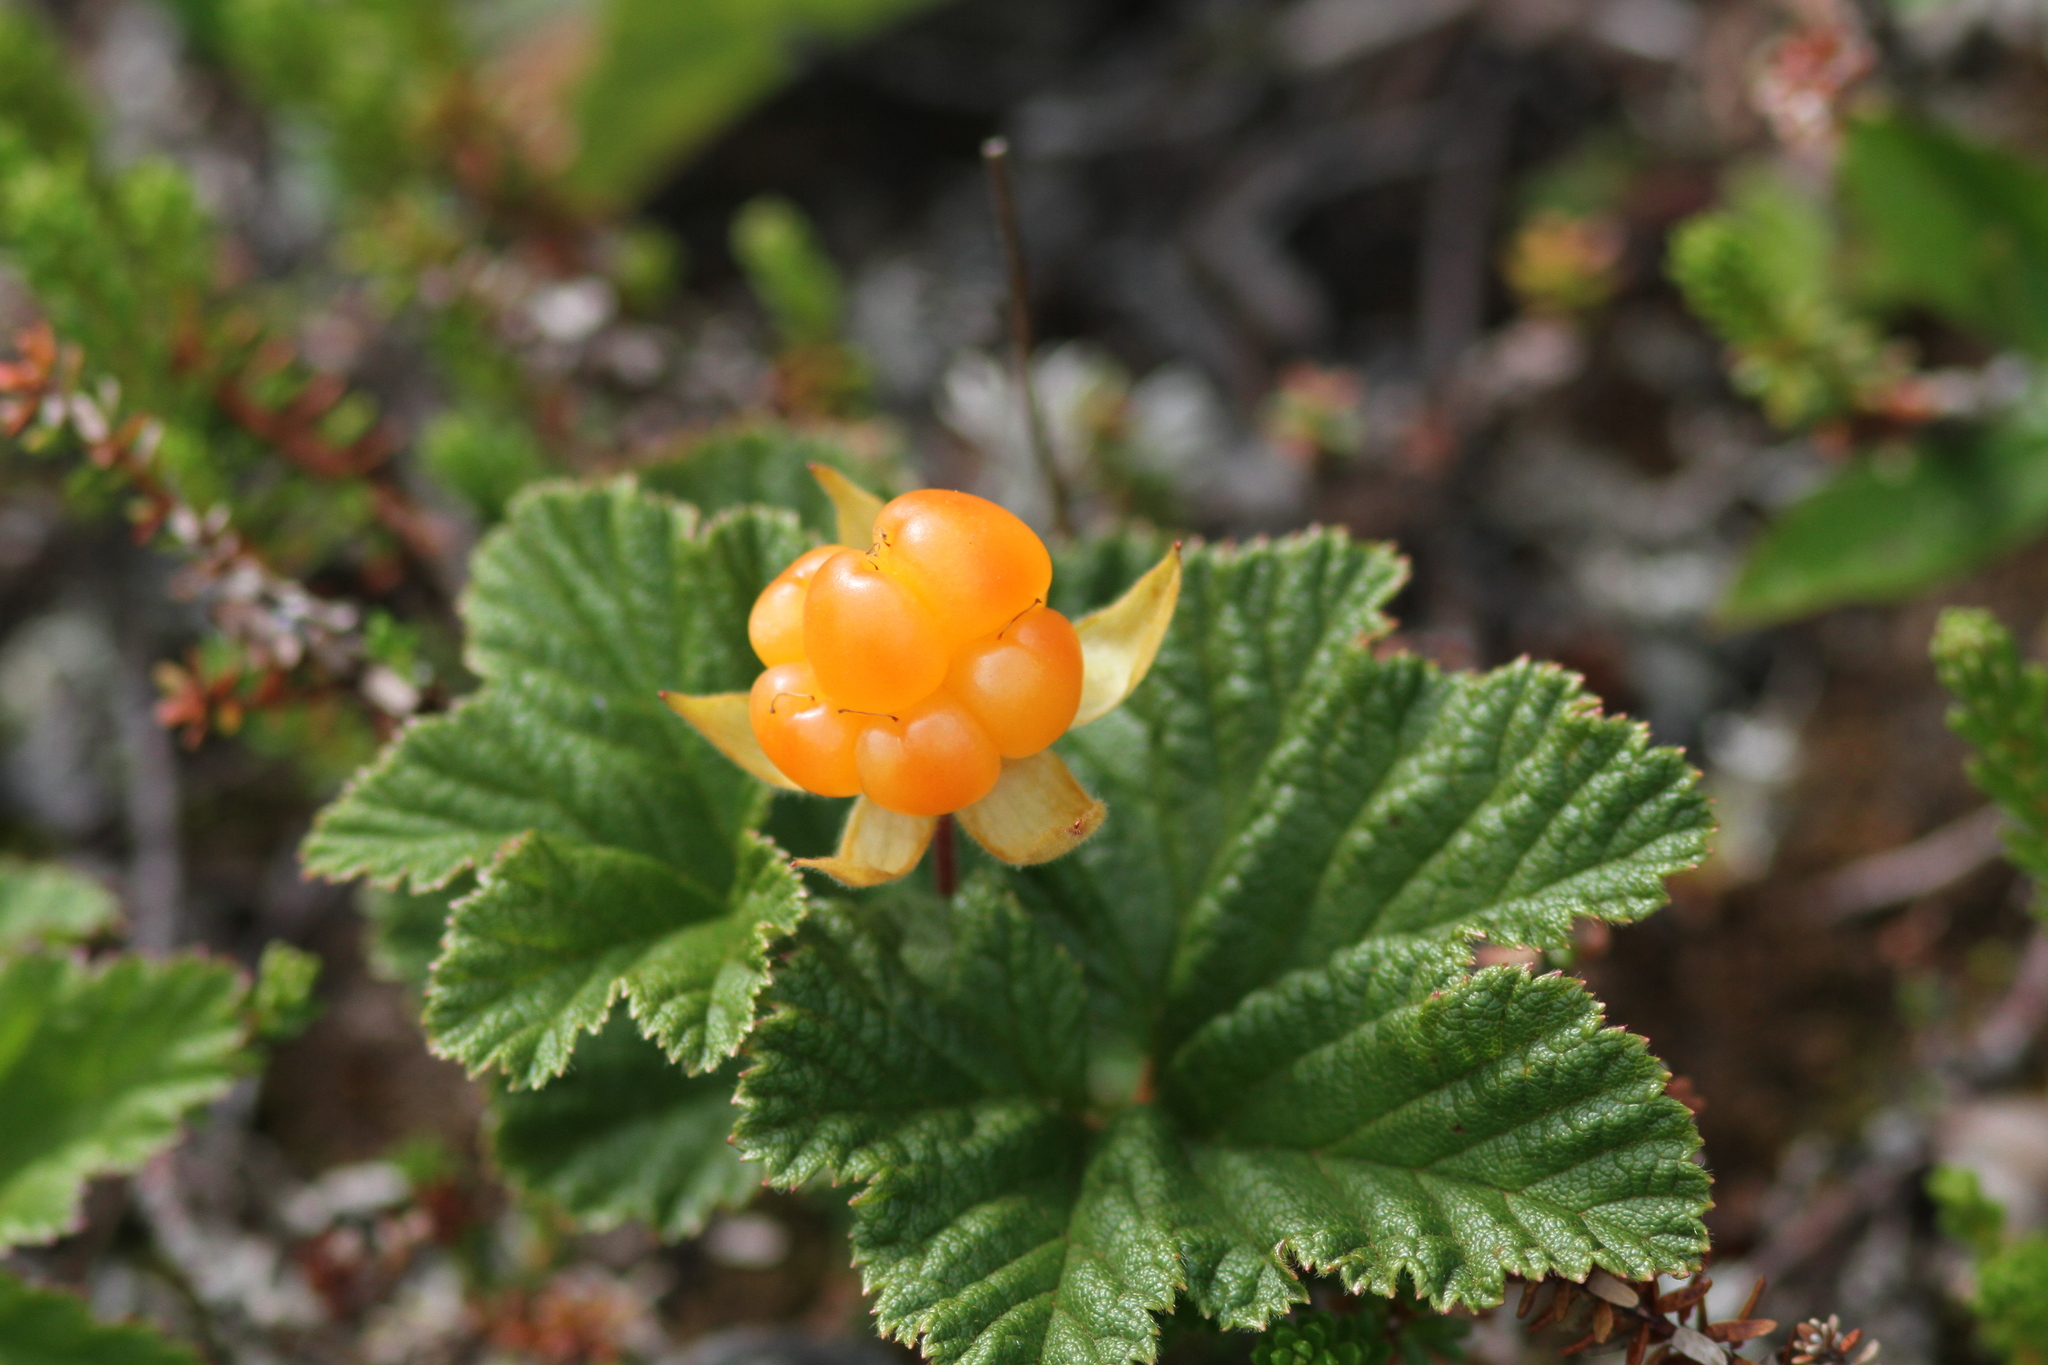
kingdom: Plantae
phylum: Tracheophyta
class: Magnoliopsida
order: Rosales
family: Rosaceae
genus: Rubus
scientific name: Rubus chamaemorus
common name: Cloudberry
